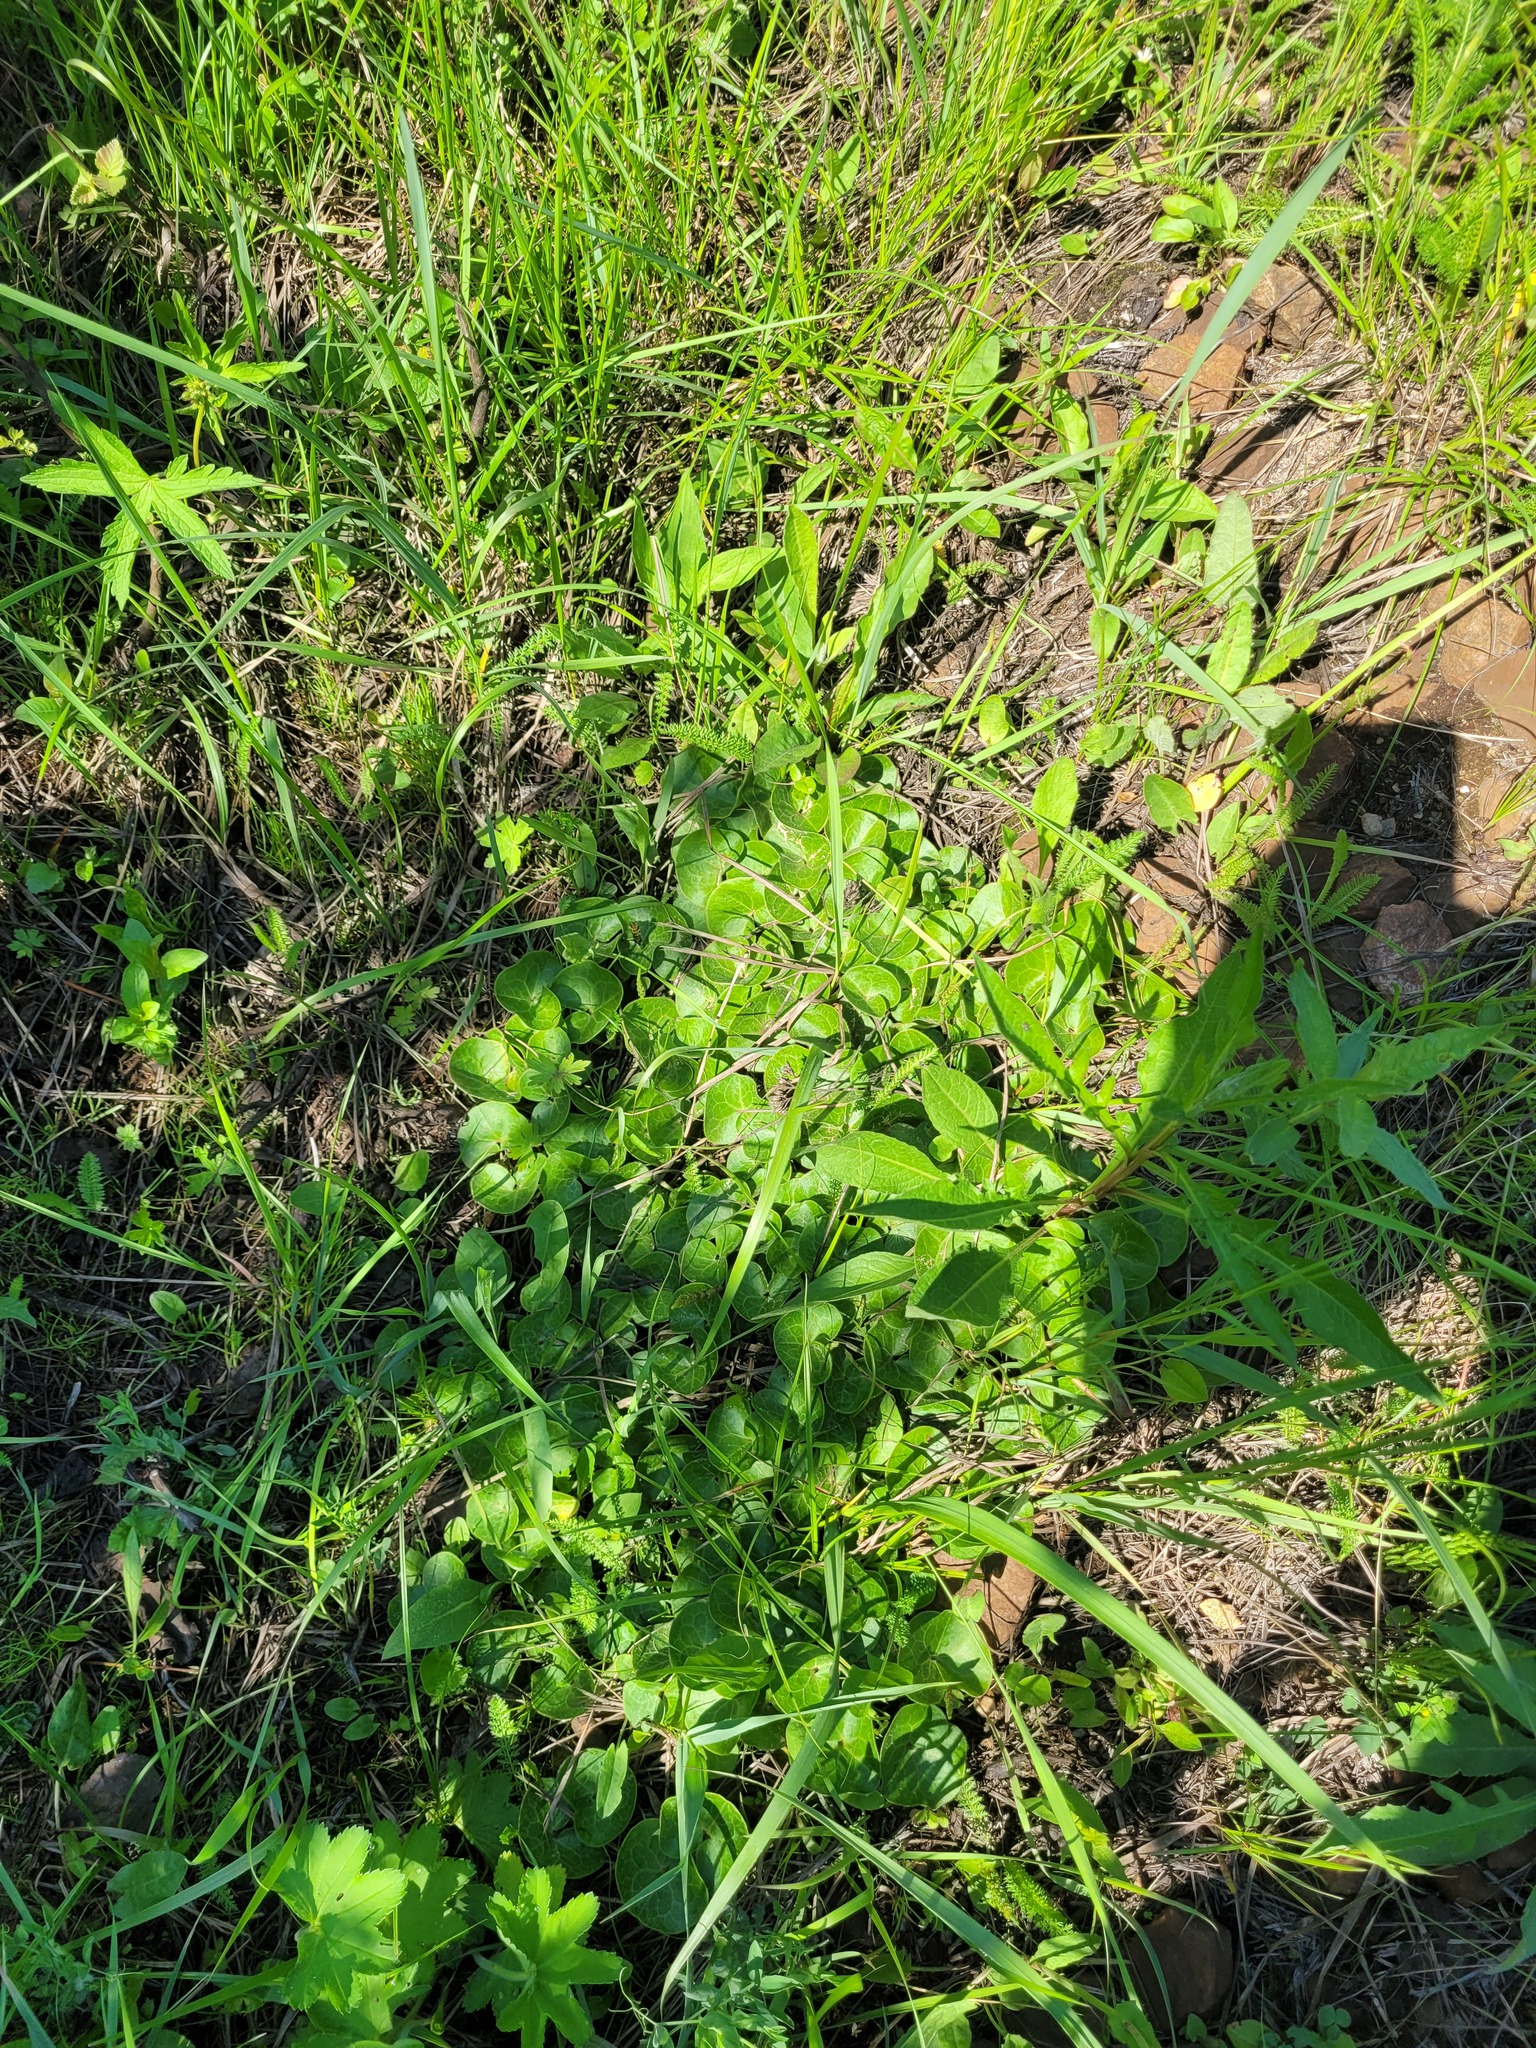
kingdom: Plantae
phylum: Tracheophyta
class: Magnoliopsida
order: Piperales
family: Aristolochiaceae
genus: Asarum
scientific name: Asarum europaeum
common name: Asarabacca
